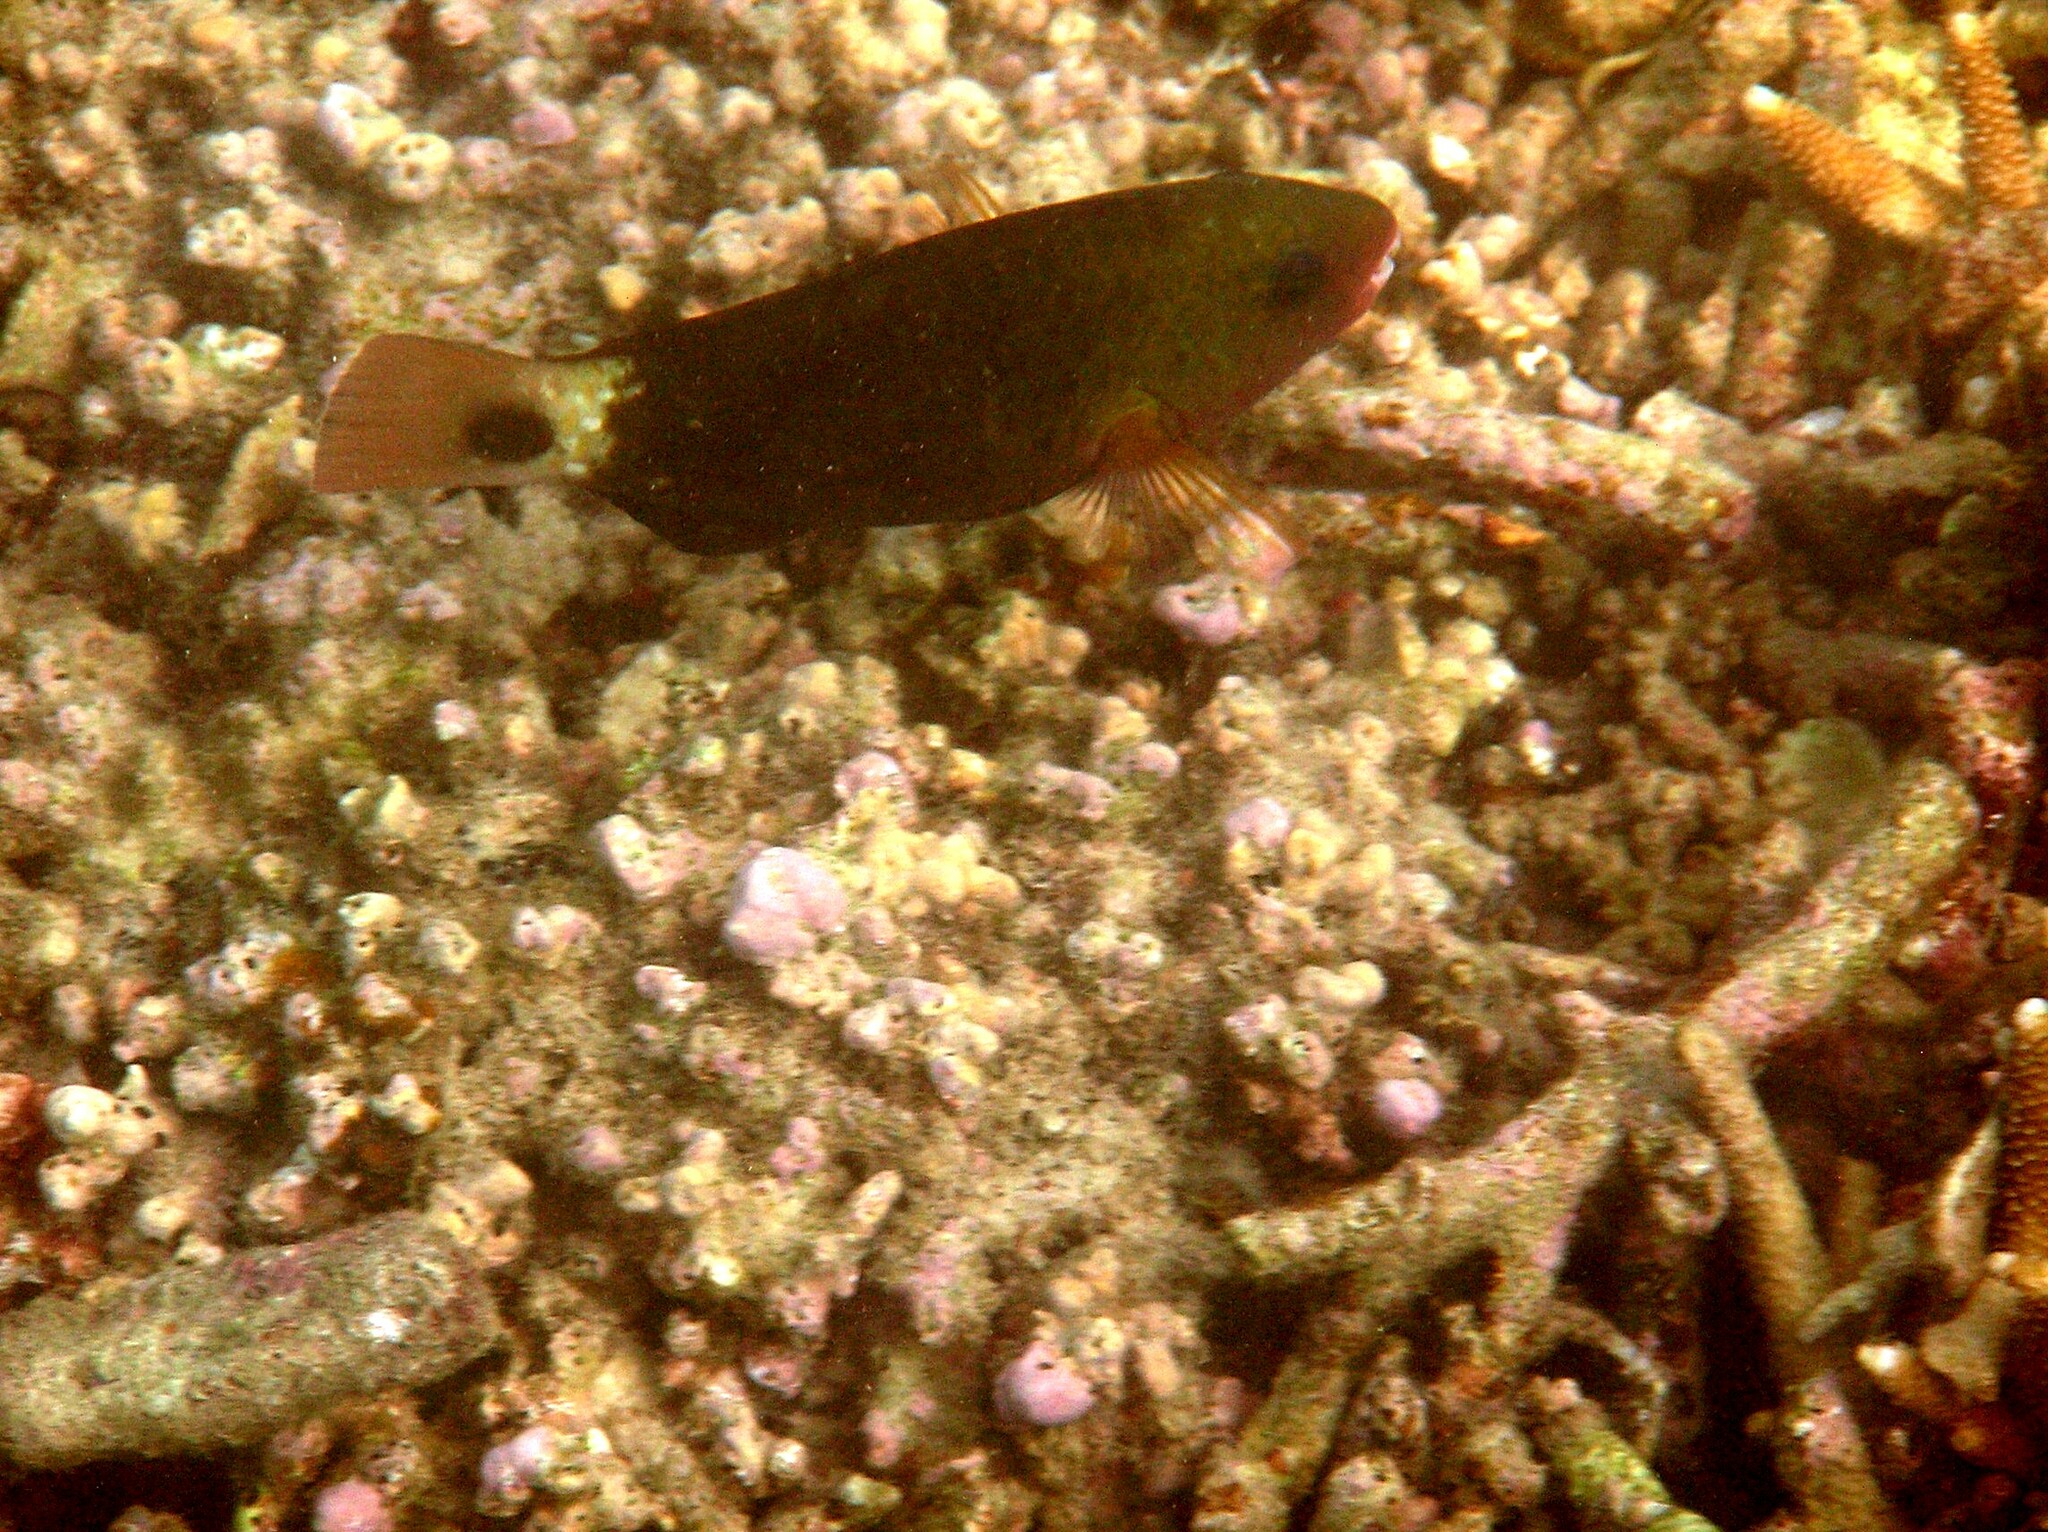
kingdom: Animalia
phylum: Chordata
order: Perciformes
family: Scaridae
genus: Chlorurus
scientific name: Chlorurus spilurus
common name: Bullethead parrotfish
